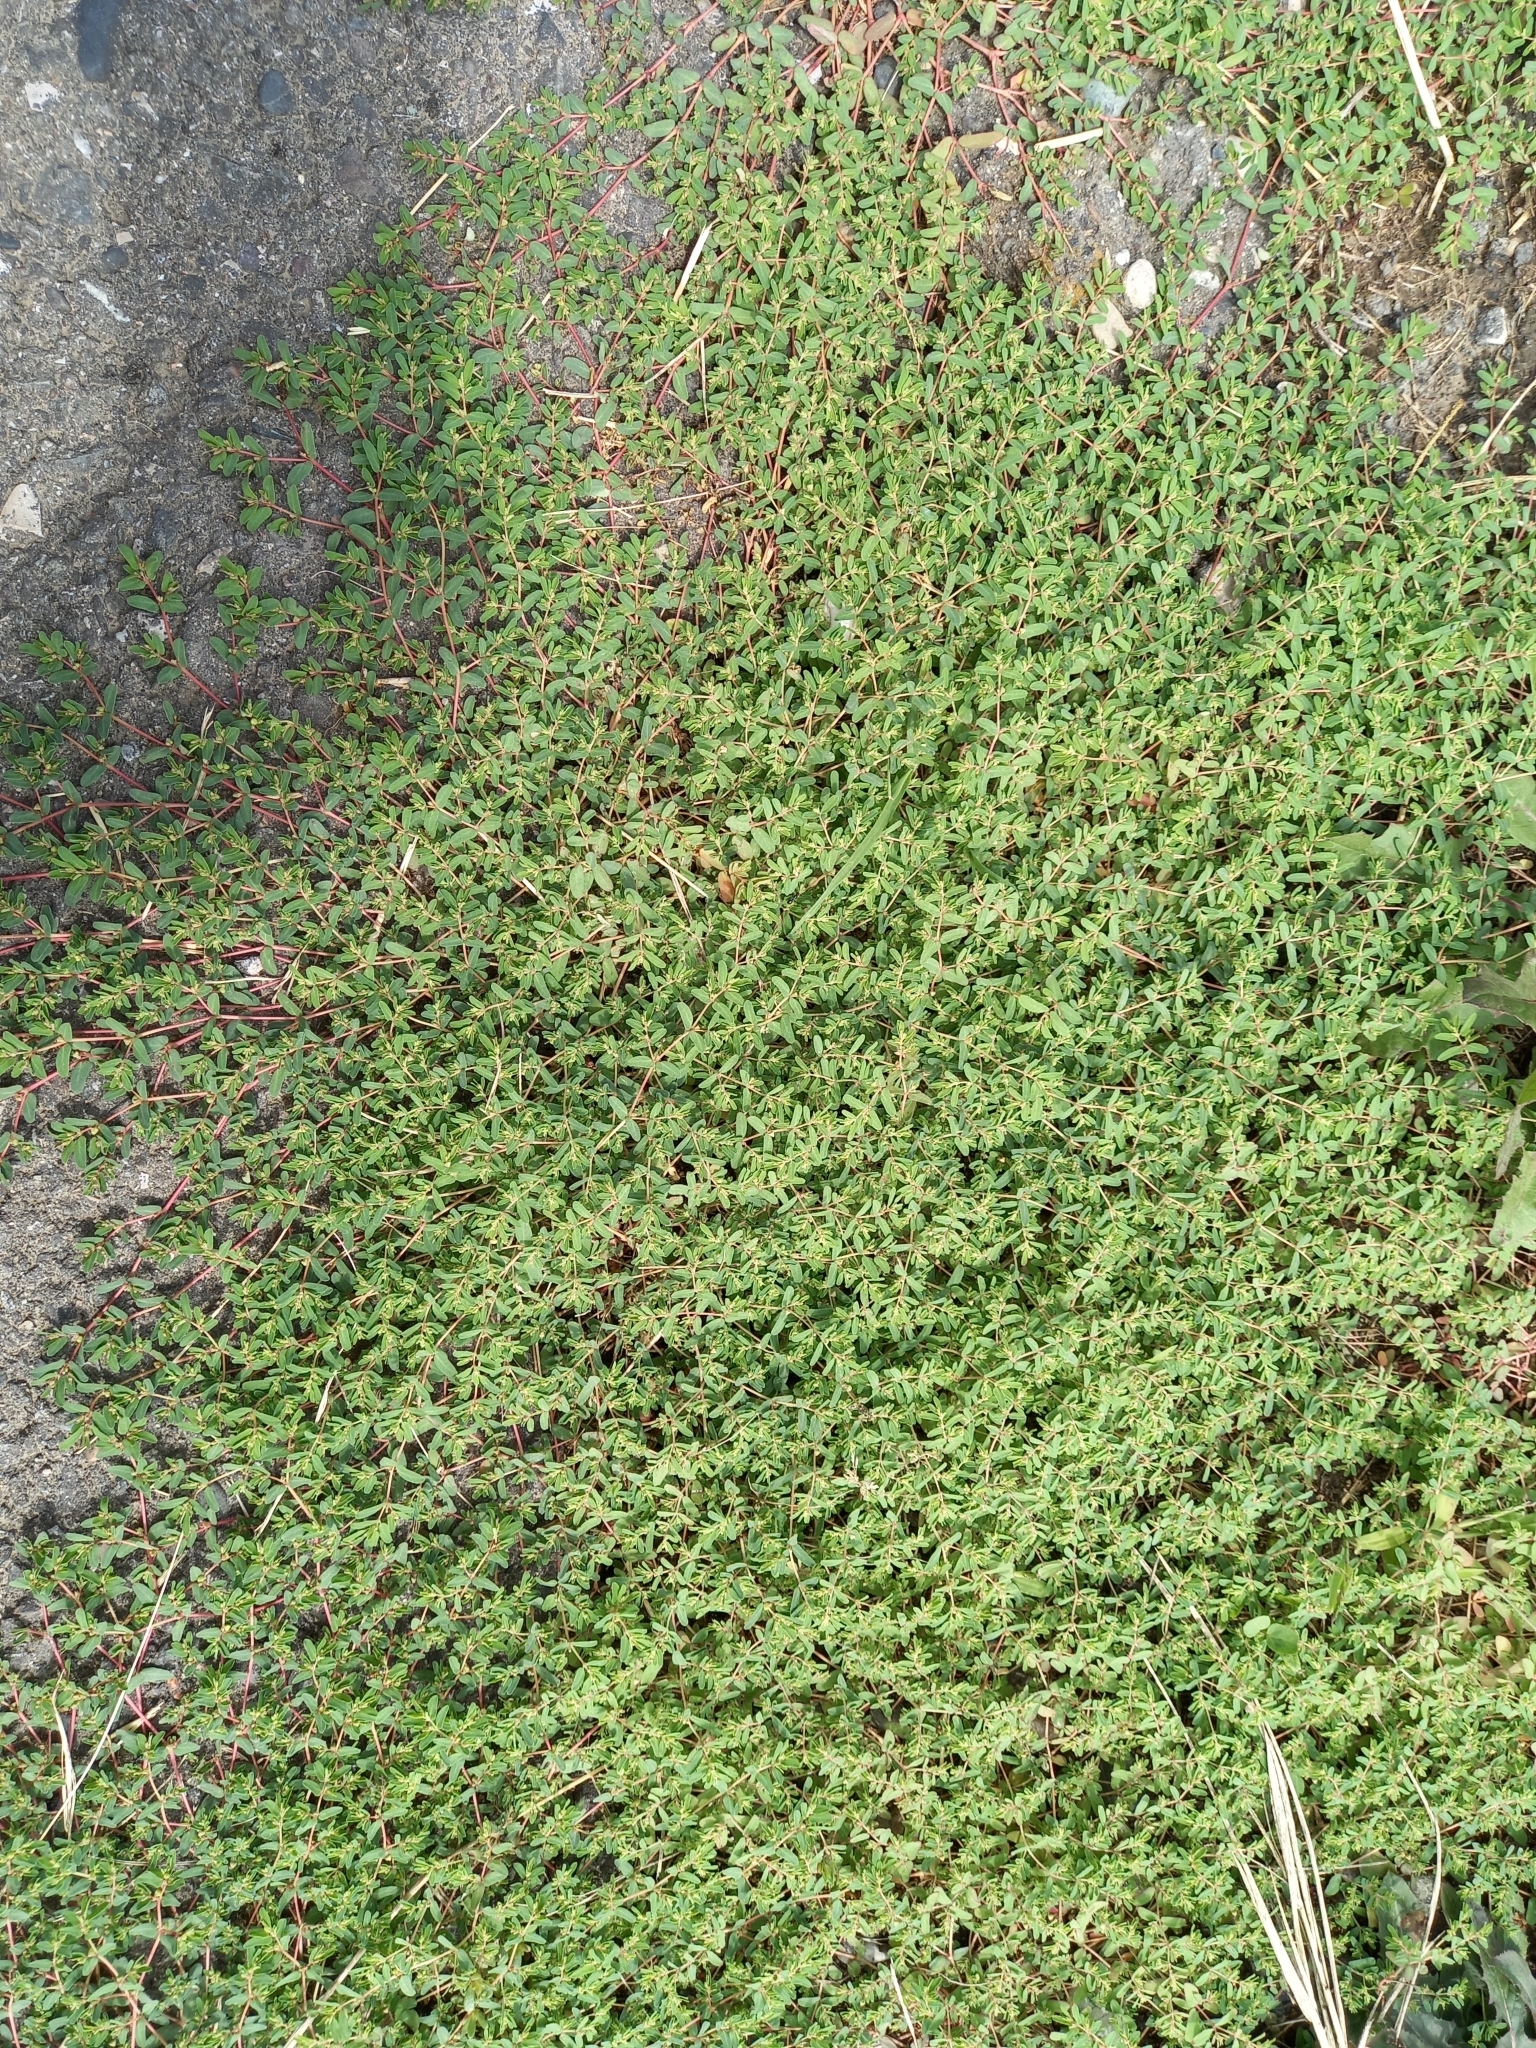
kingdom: Plantae
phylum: Tracheophyta
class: Magnoliopsida
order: Malpighiales
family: Euphorbiaceae
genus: Euphorbia
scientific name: Euphorbia glyptosperma
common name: Corrugate-seeded spurge
